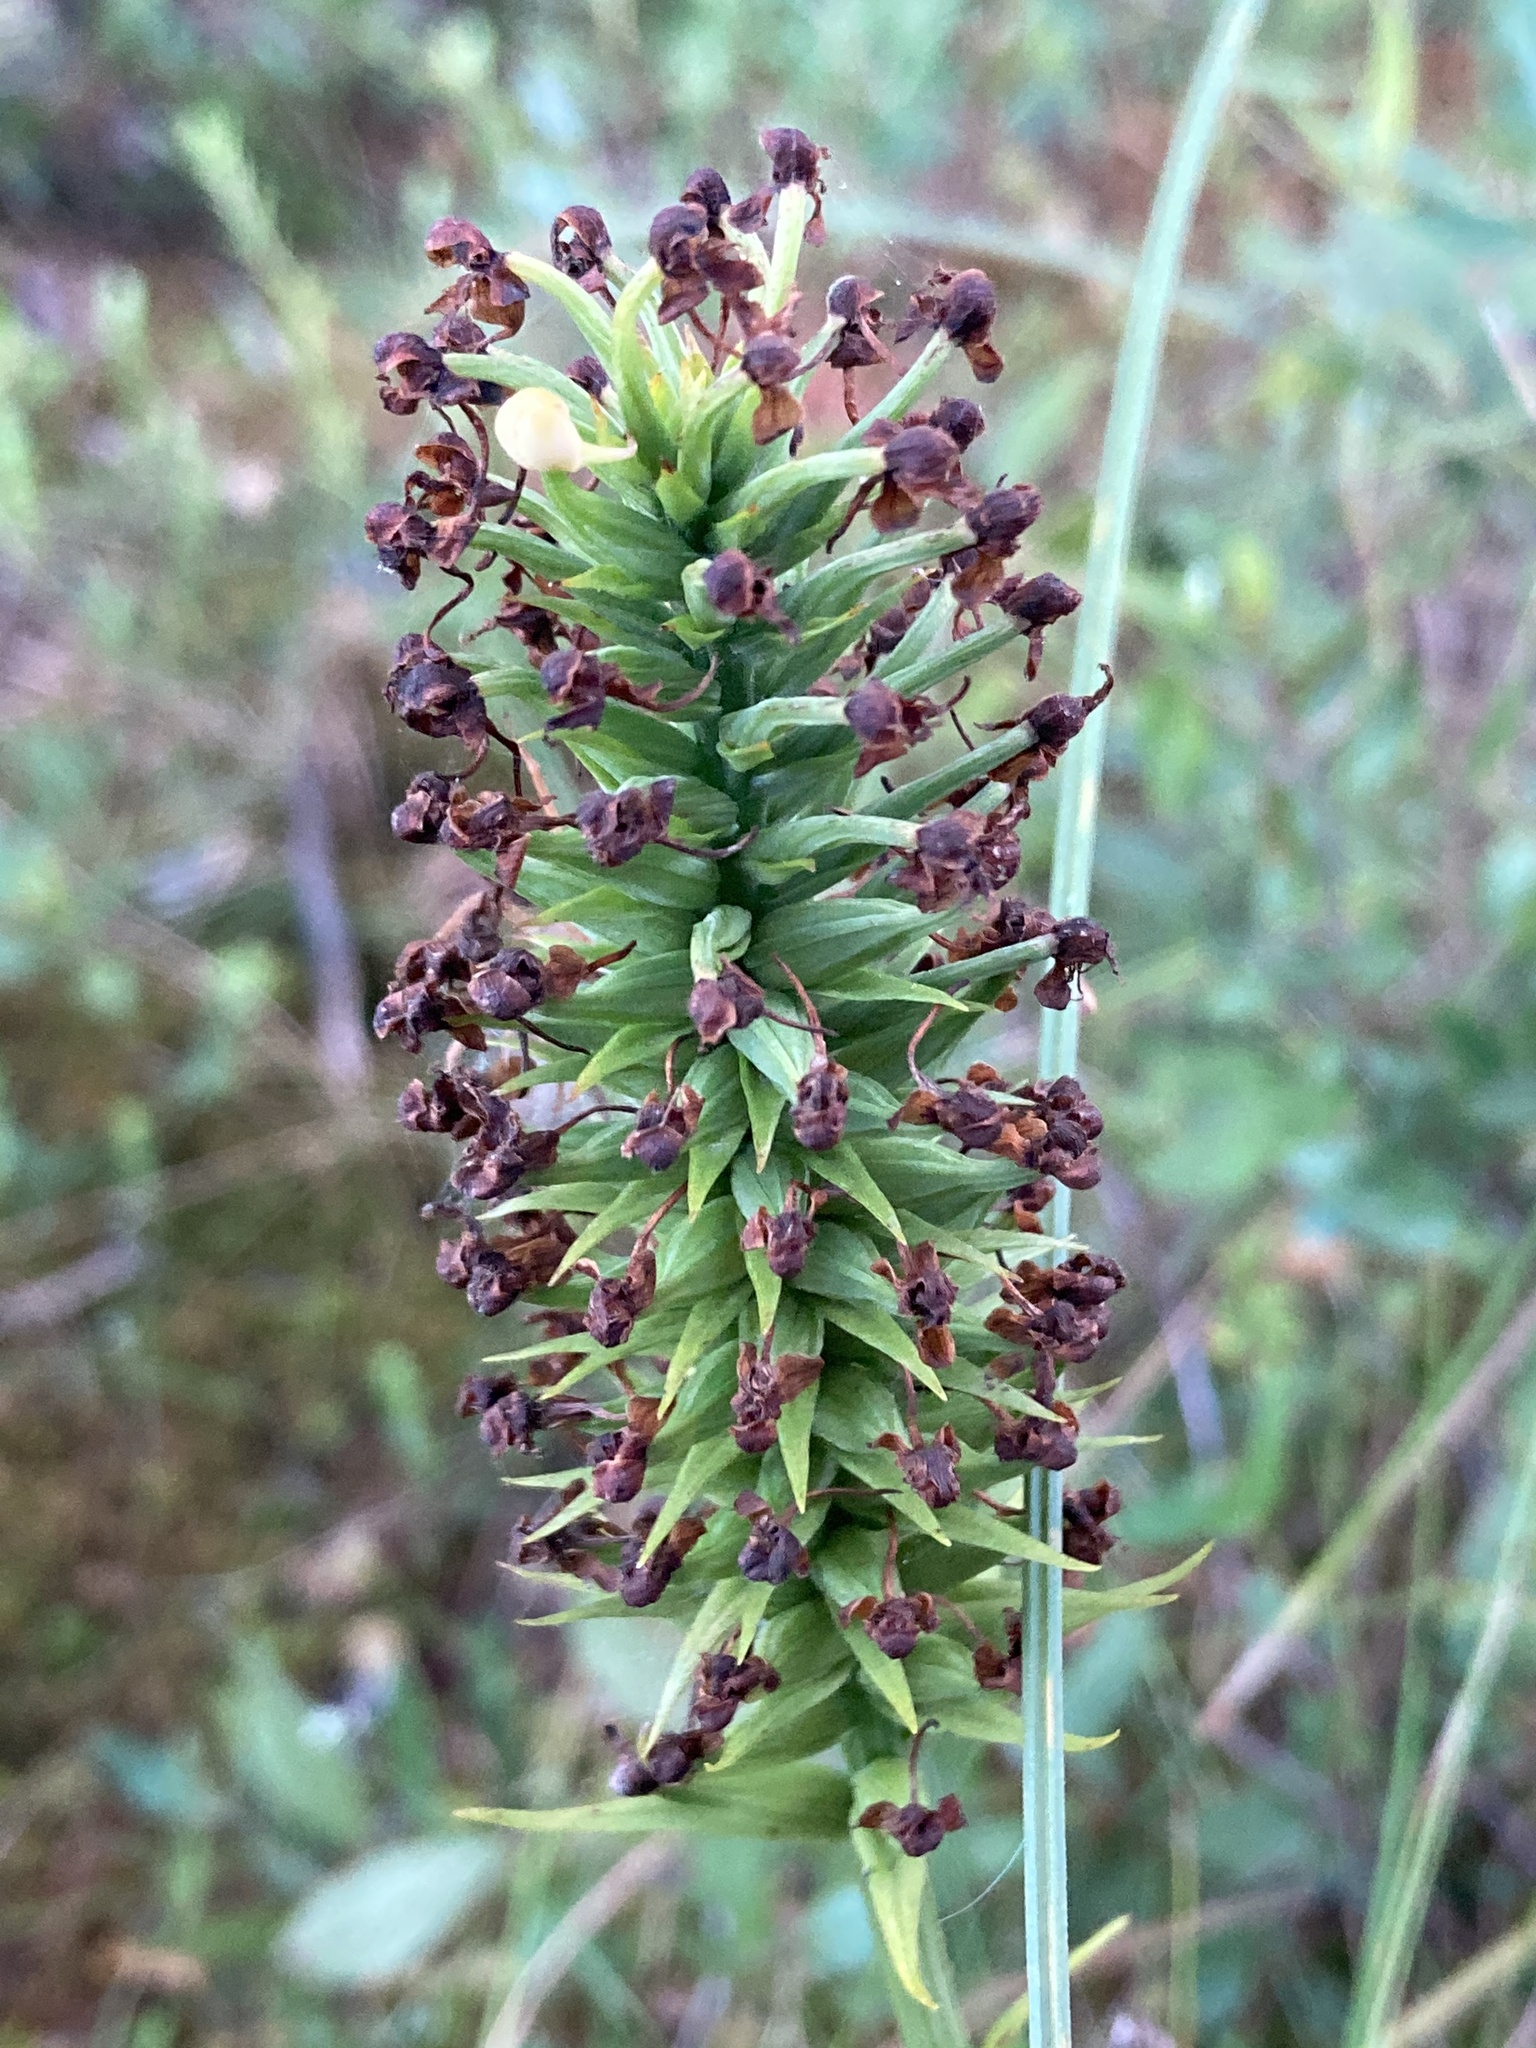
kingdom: Plantae
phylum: Tracheophyta
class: Liliopsida
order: Asparagales
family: Orchidaceae
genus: Platanthera
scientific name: Platanthera cristata
